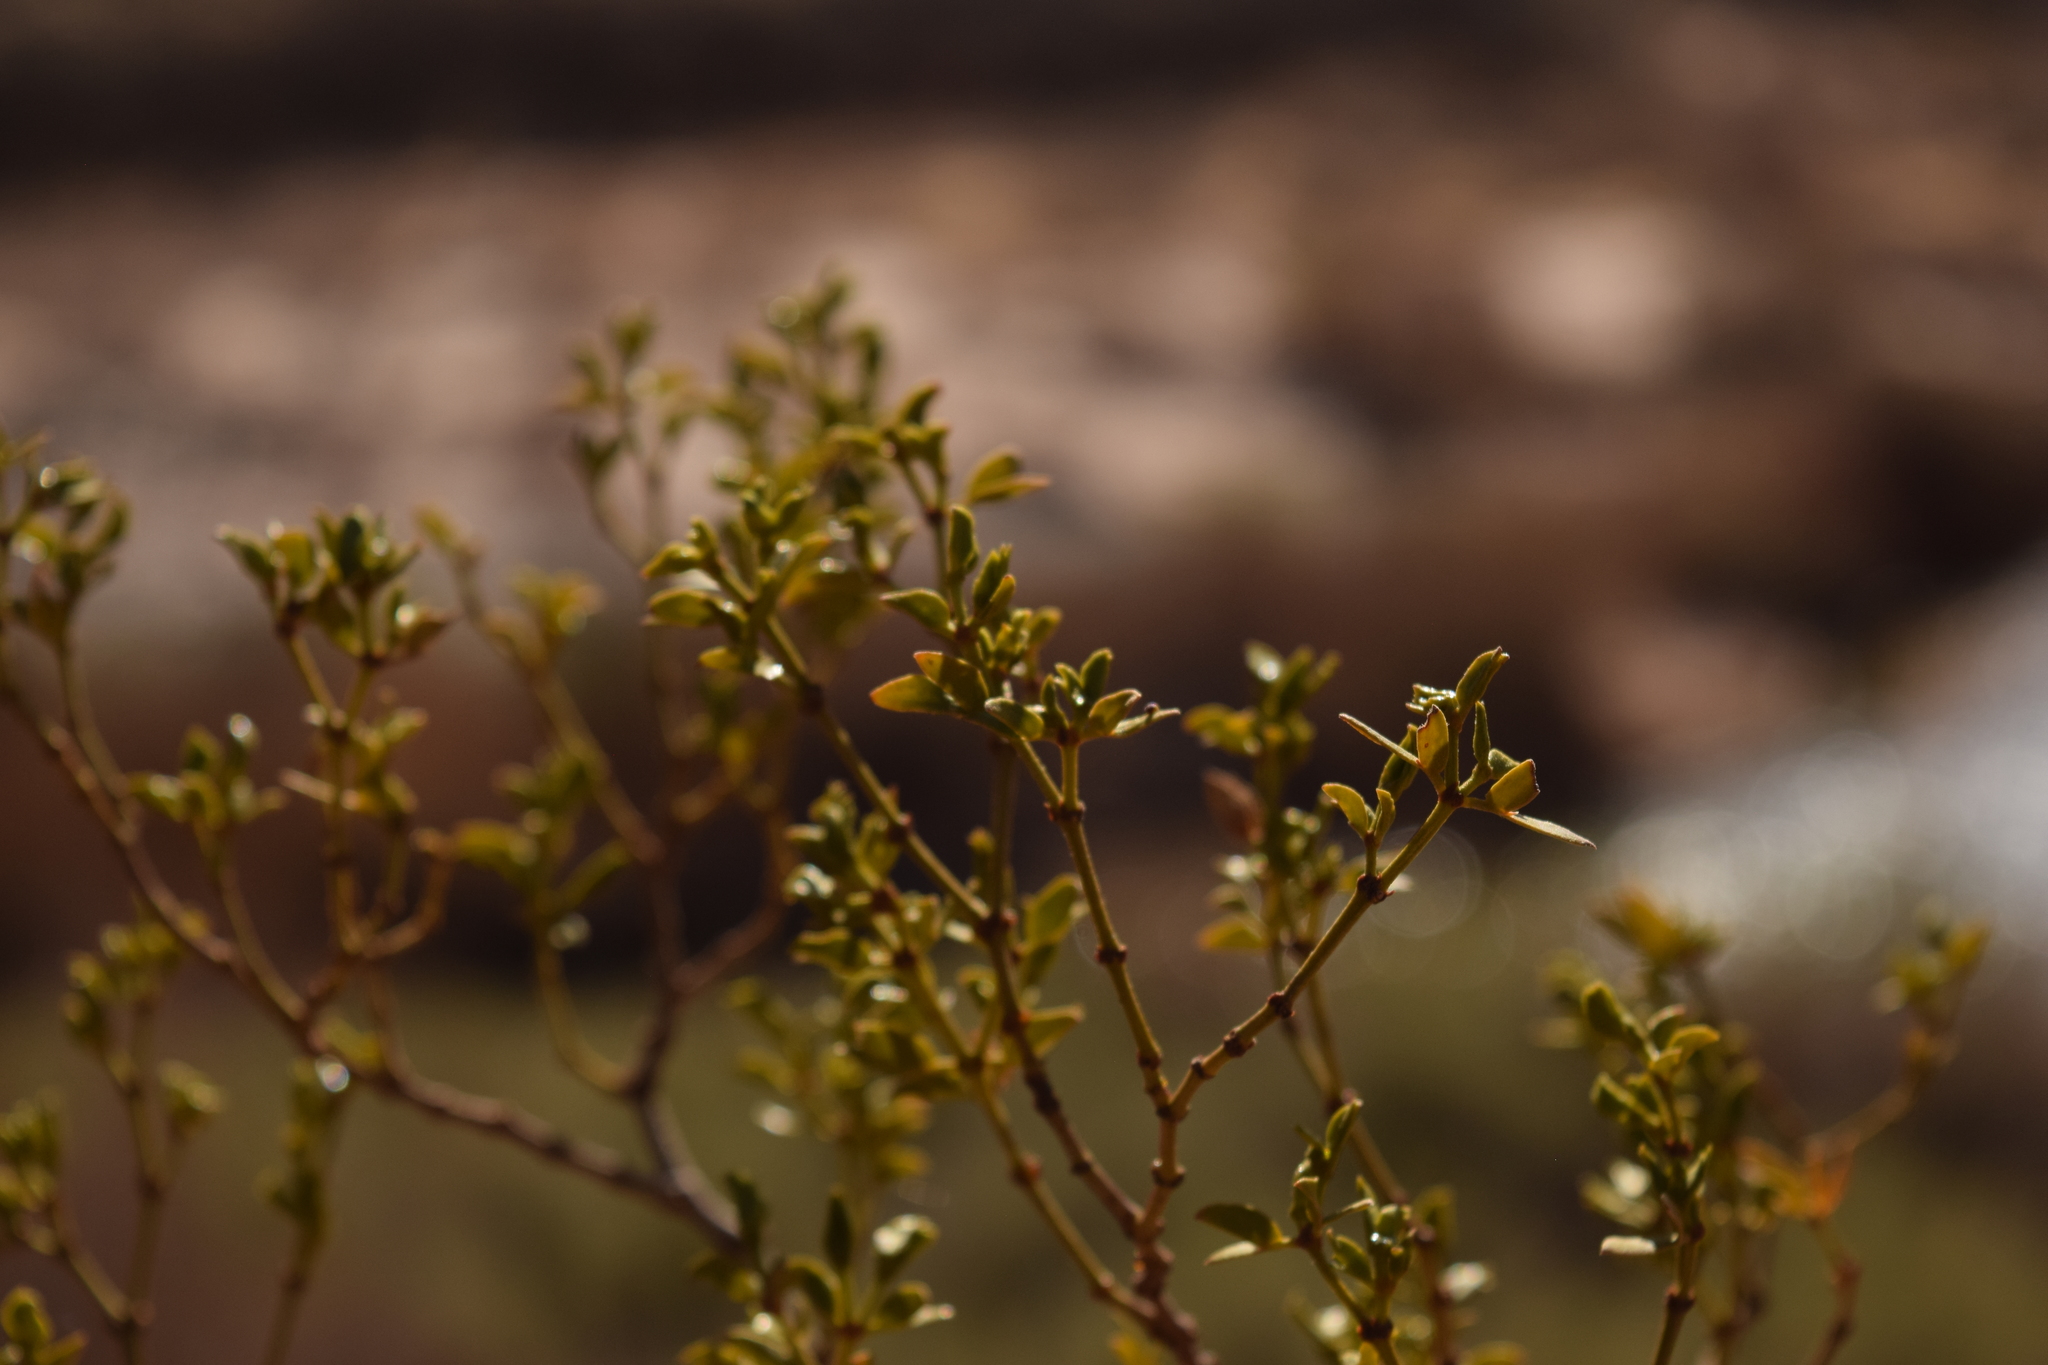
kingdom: Plantae
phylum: Tracheophyta
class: Magnoliopsida
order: Zygophyllales
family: Zygophyllaceae
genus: Larrea
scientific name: Larrea tridentata
